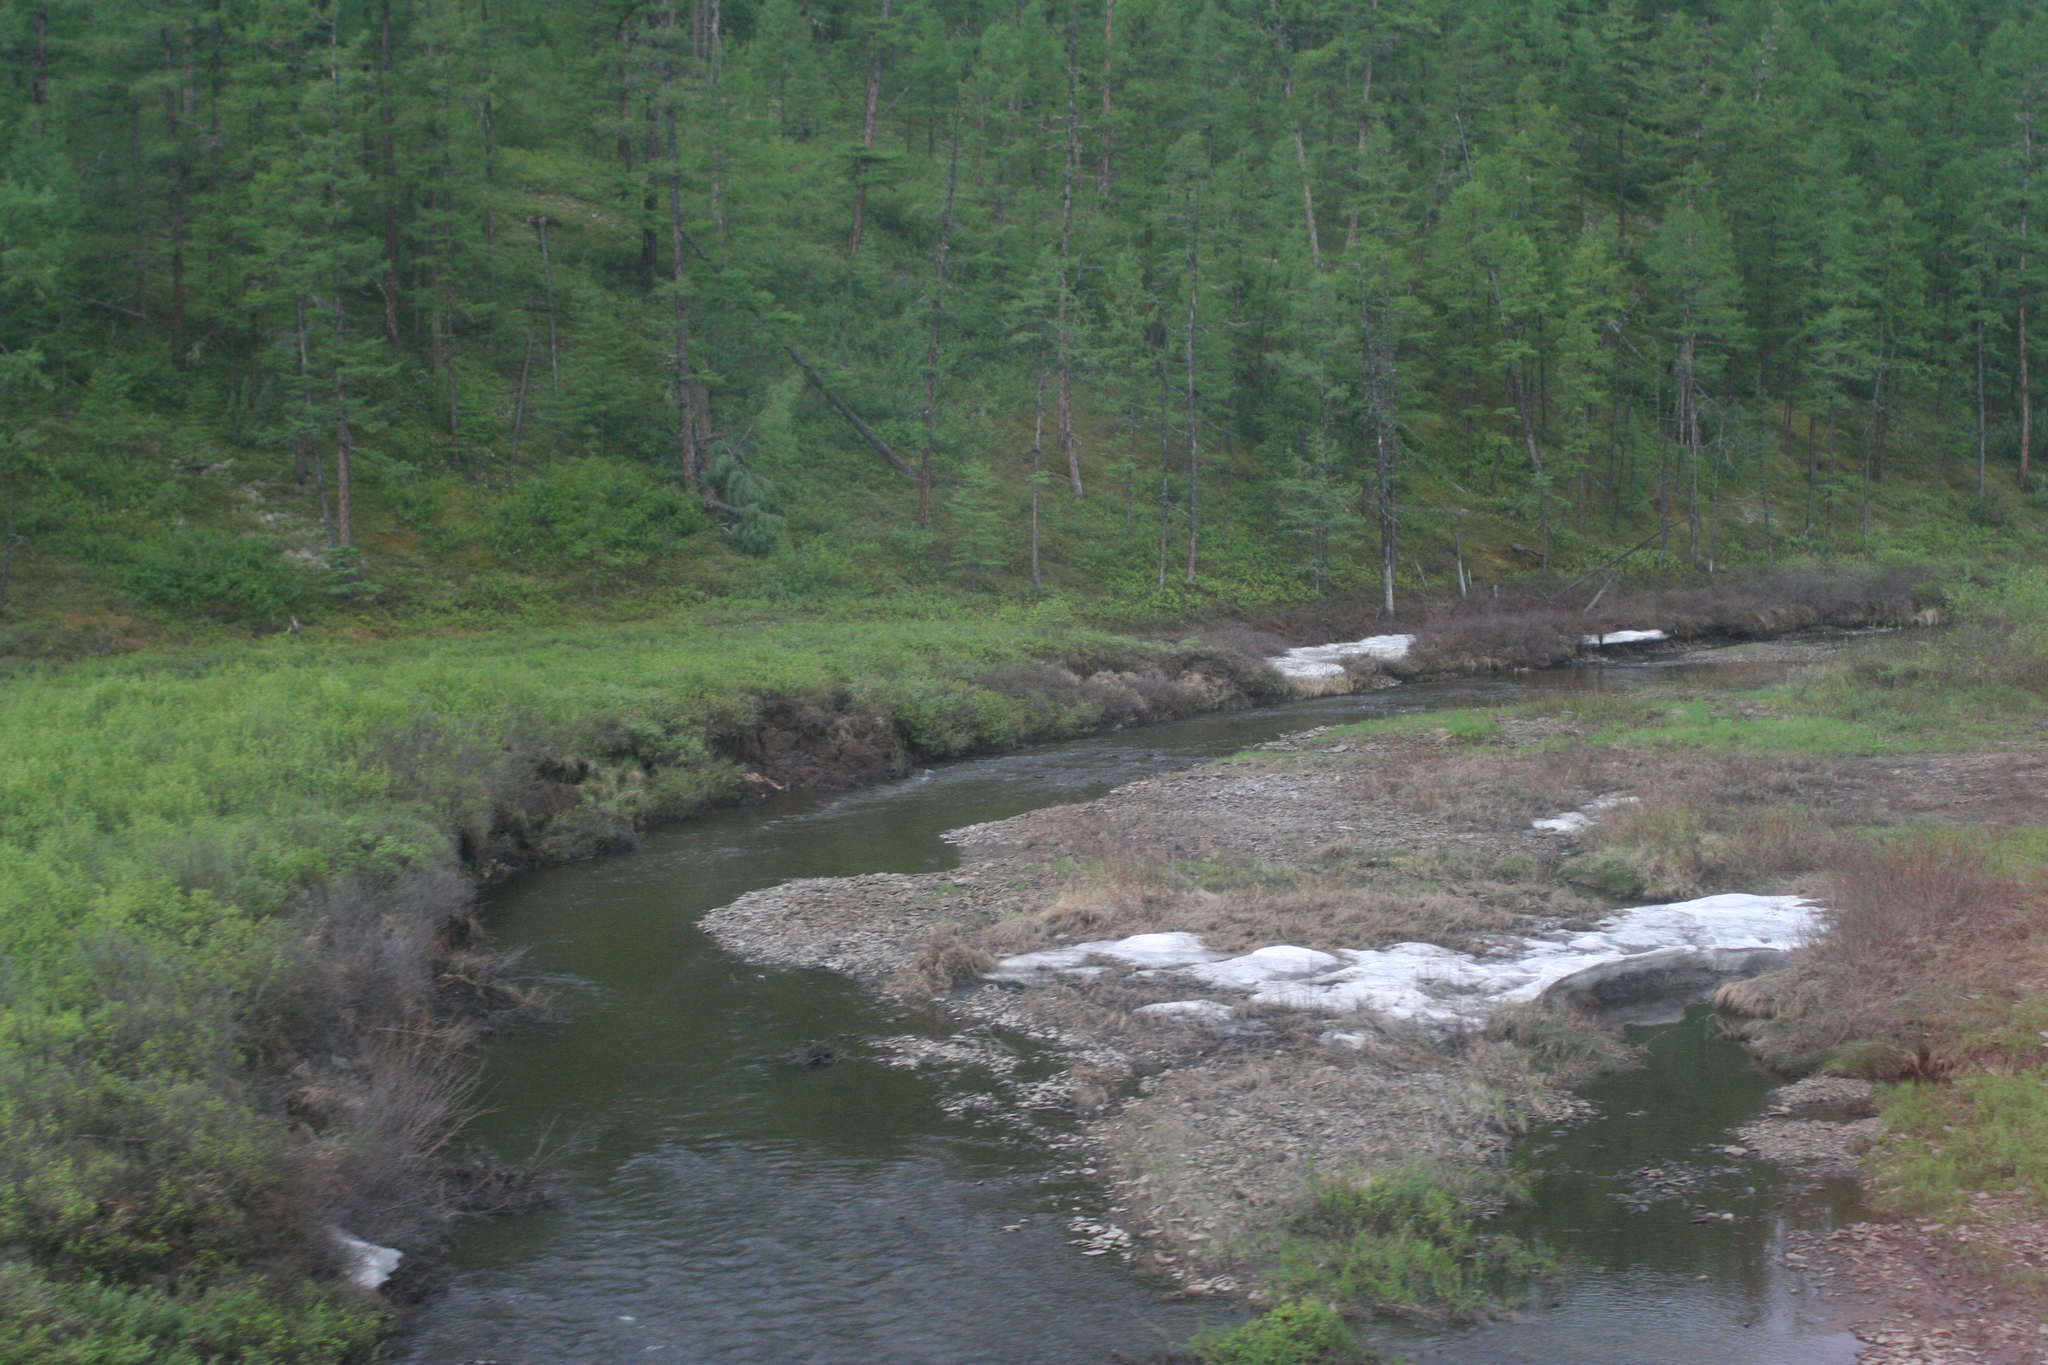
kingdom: Plantae
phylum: Tracheophyta
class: Pinopsida
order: Pinales
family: Pinaceae
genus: Larix
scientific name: Larix gmelinii
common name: Dahurian larch
